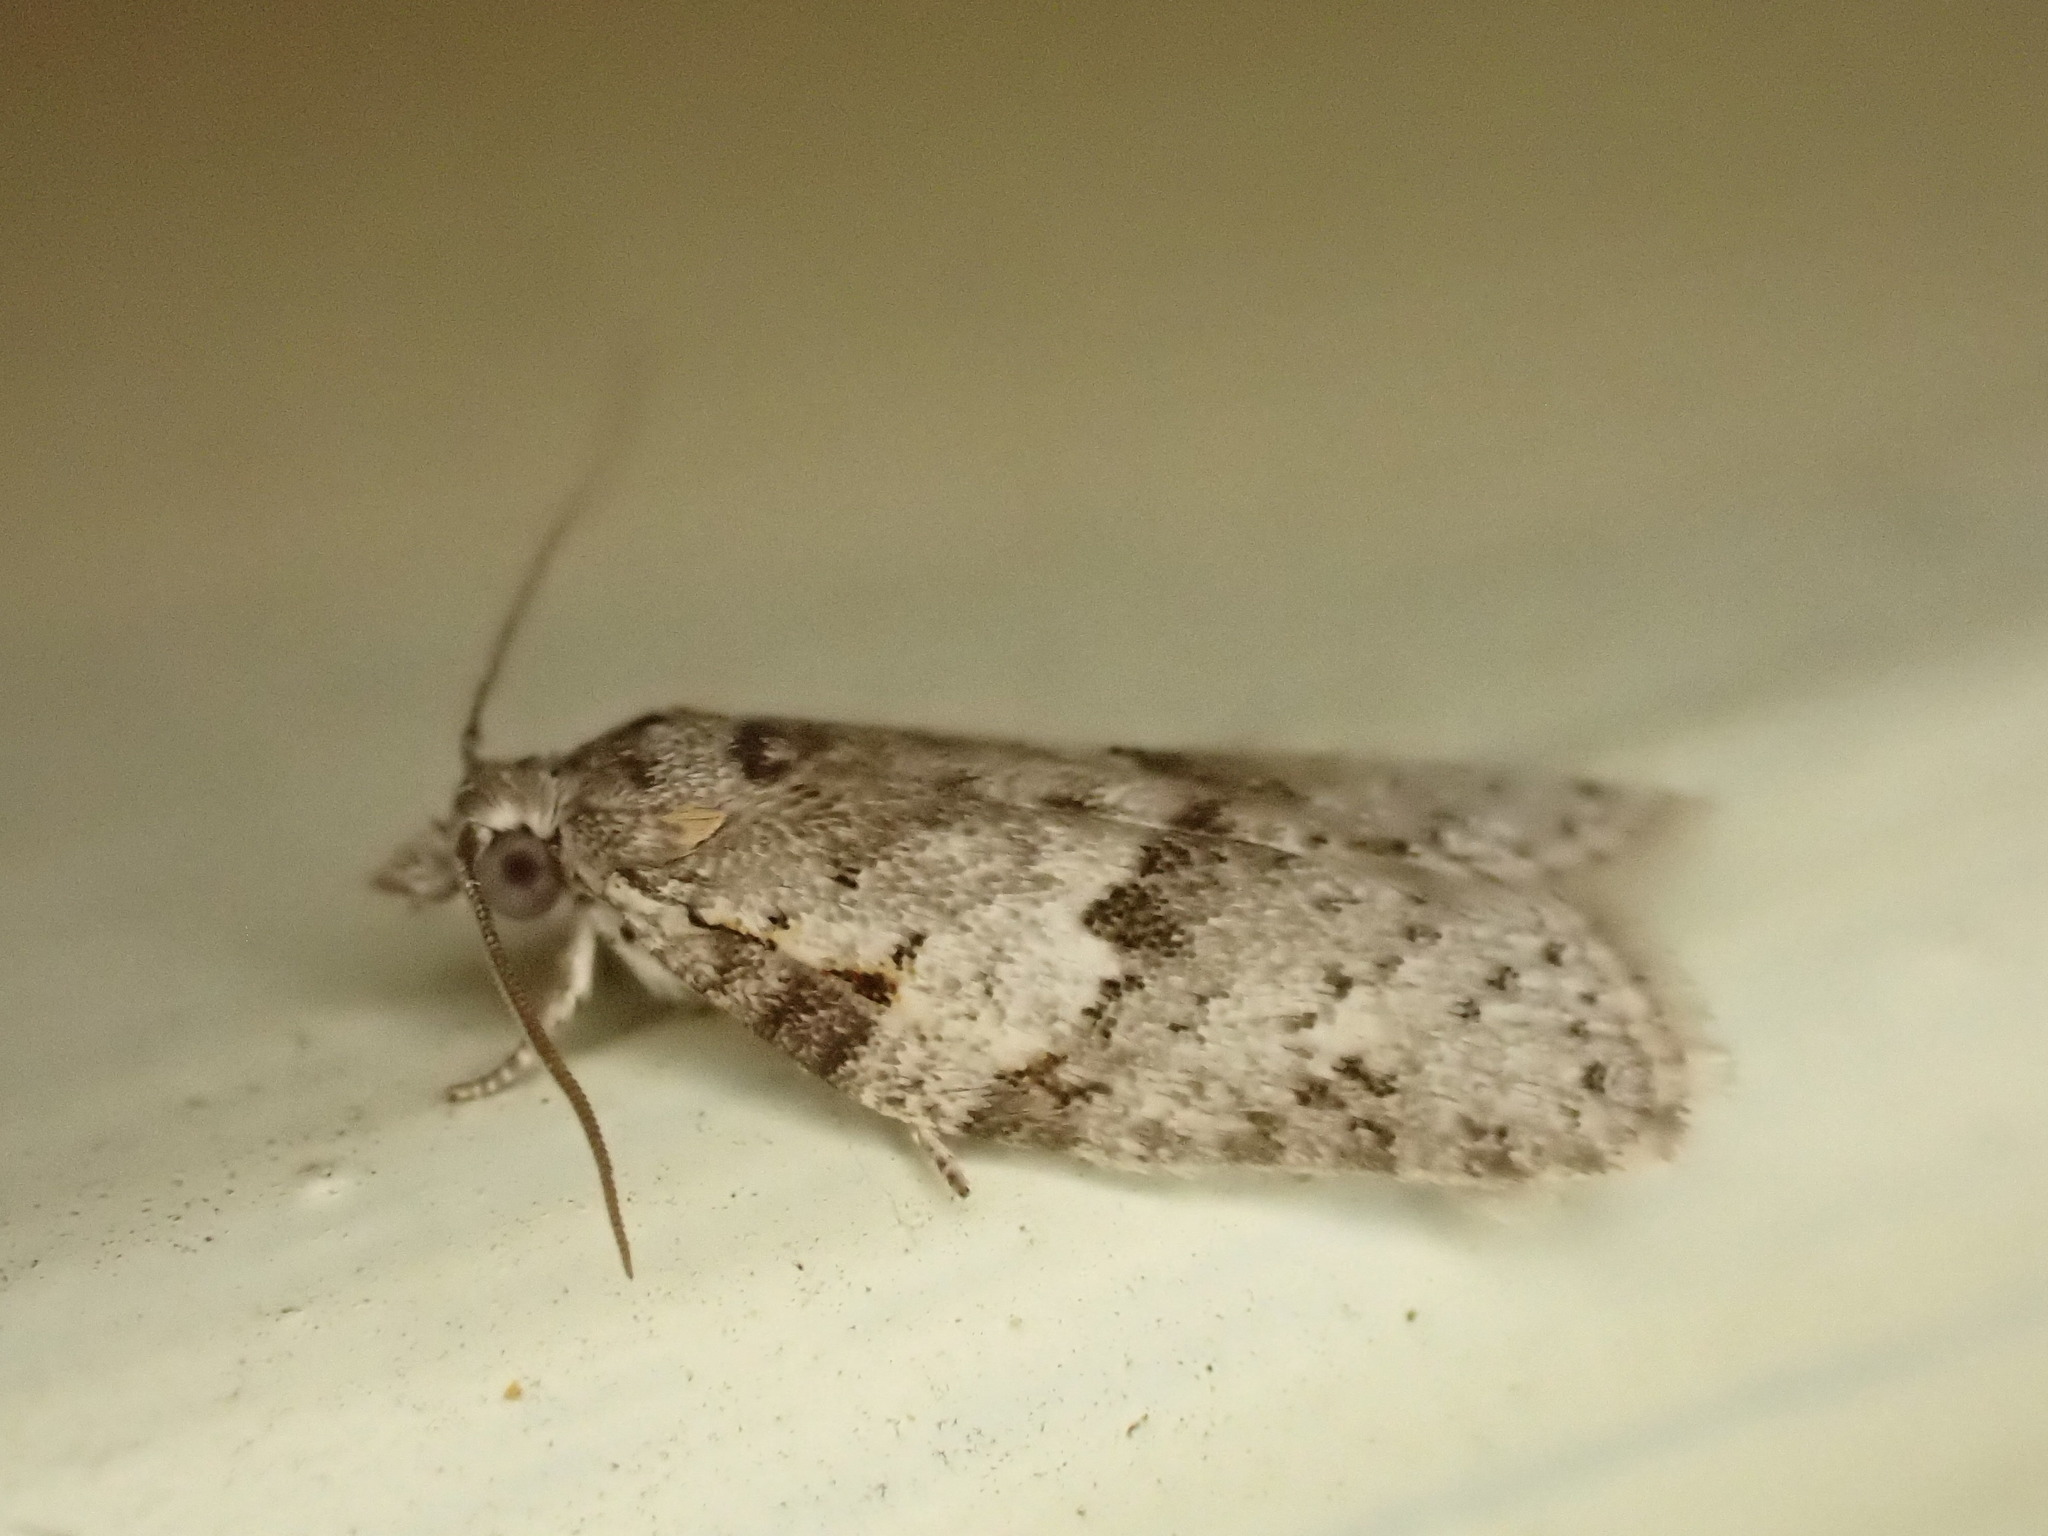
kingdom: Animalia
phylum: Arthropoda
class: Insecta
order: Lepidoptera
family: Tortricidae
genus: Isotenes
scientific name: Isotenes miserana
